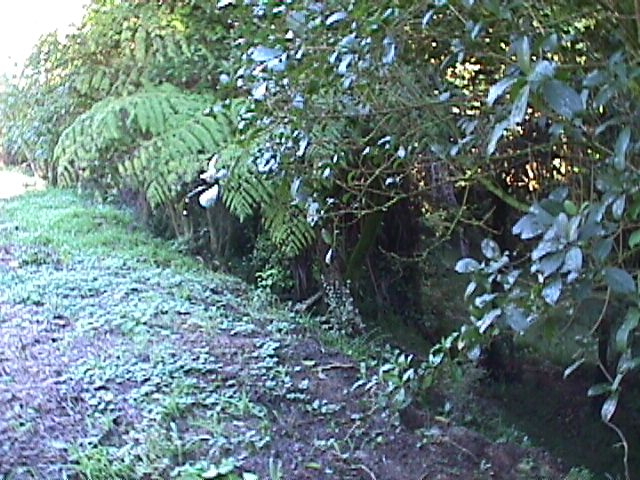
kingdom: Plantae
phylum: Tracheophyta
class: Magnoliopsida
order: Malpighiales
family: Violaceae
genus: Melicytus
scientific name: Melicytus ramiflorus
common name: Mahoe
